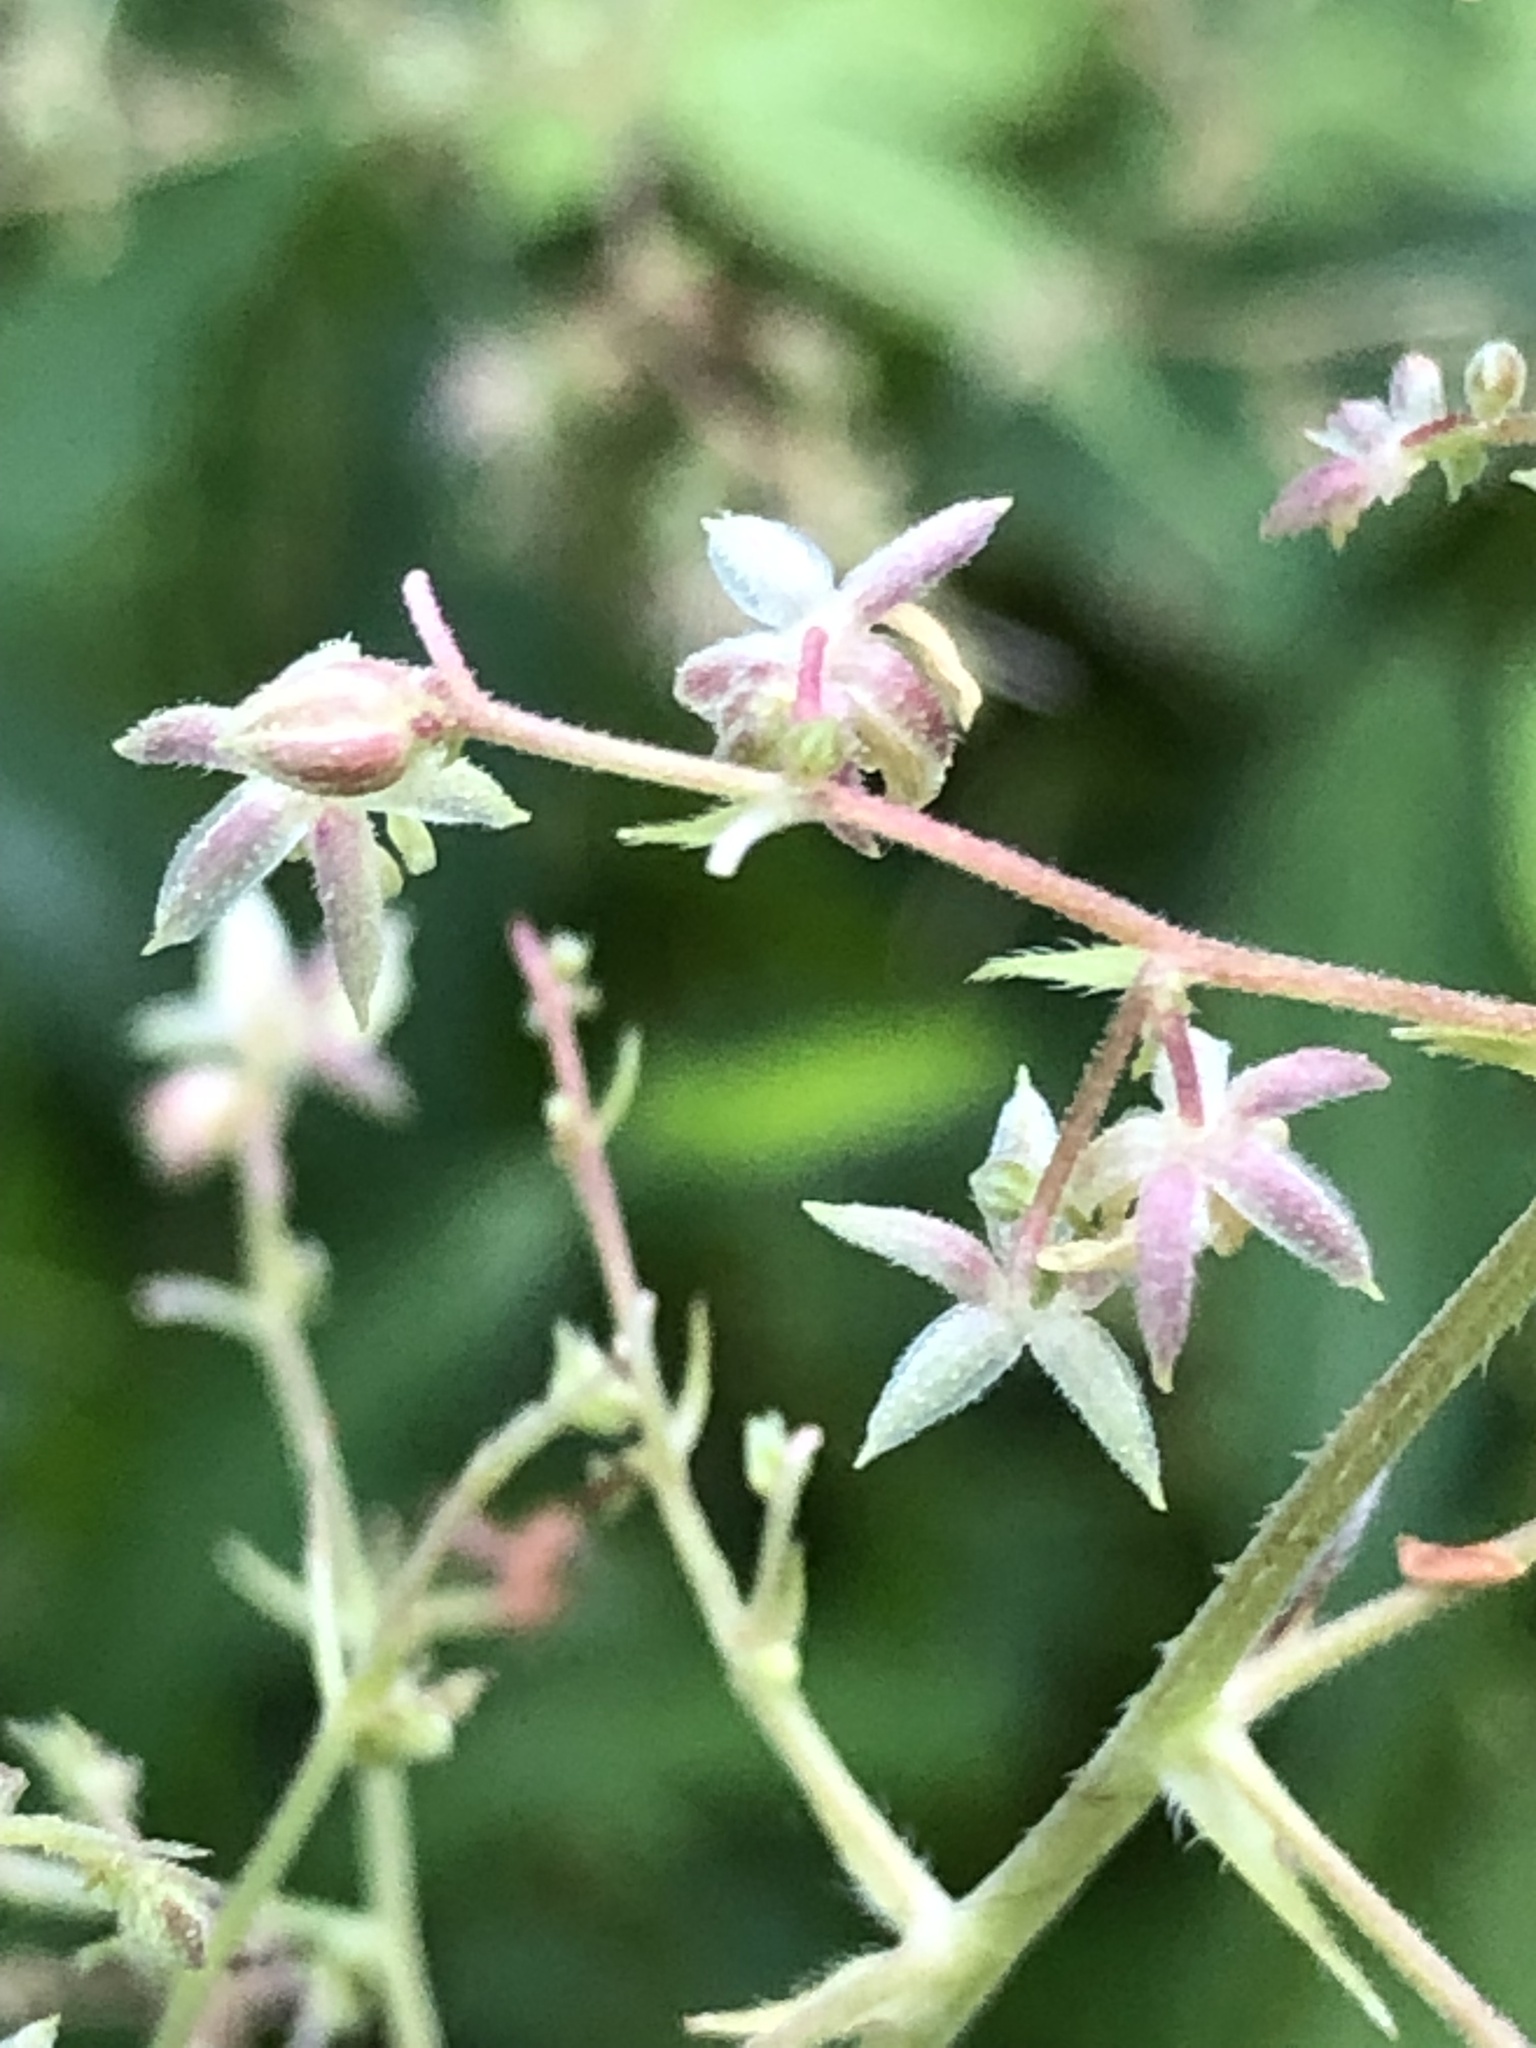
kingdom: Plantae
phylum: Tracheophyta
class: Magnoliopsida
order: Rosales
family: Cannabaceae
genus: Humulus
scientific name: Humulus scandens
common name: Japanese hop
